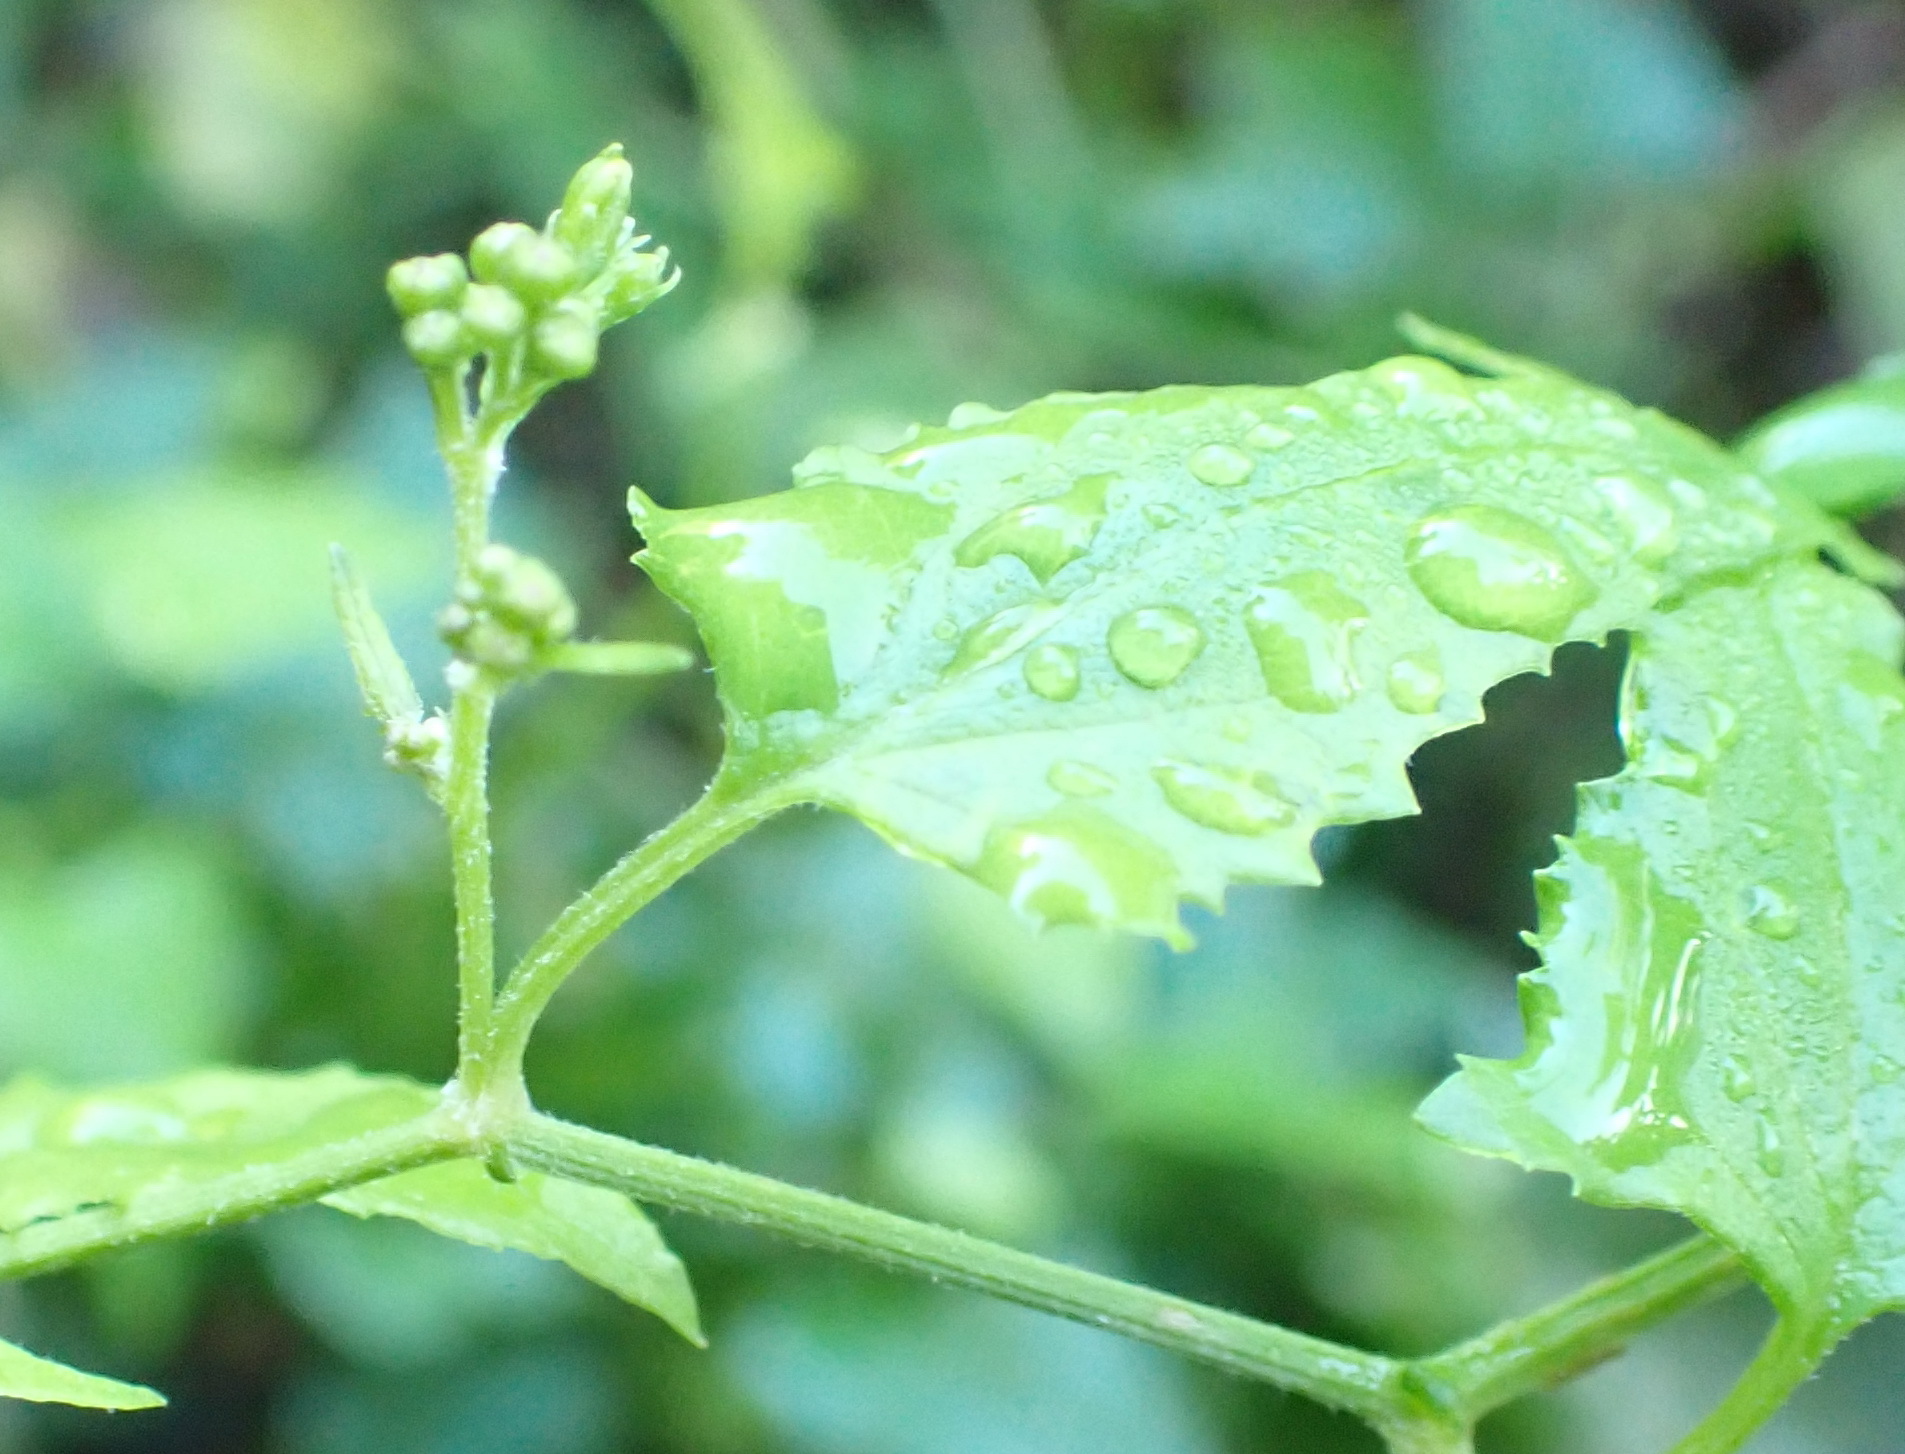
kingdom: Plantae
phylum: Tracheophyta
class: Magnoliopsida
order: Asterales
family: Asteraceae
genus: Senecio
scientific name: Senecio deltoideus
